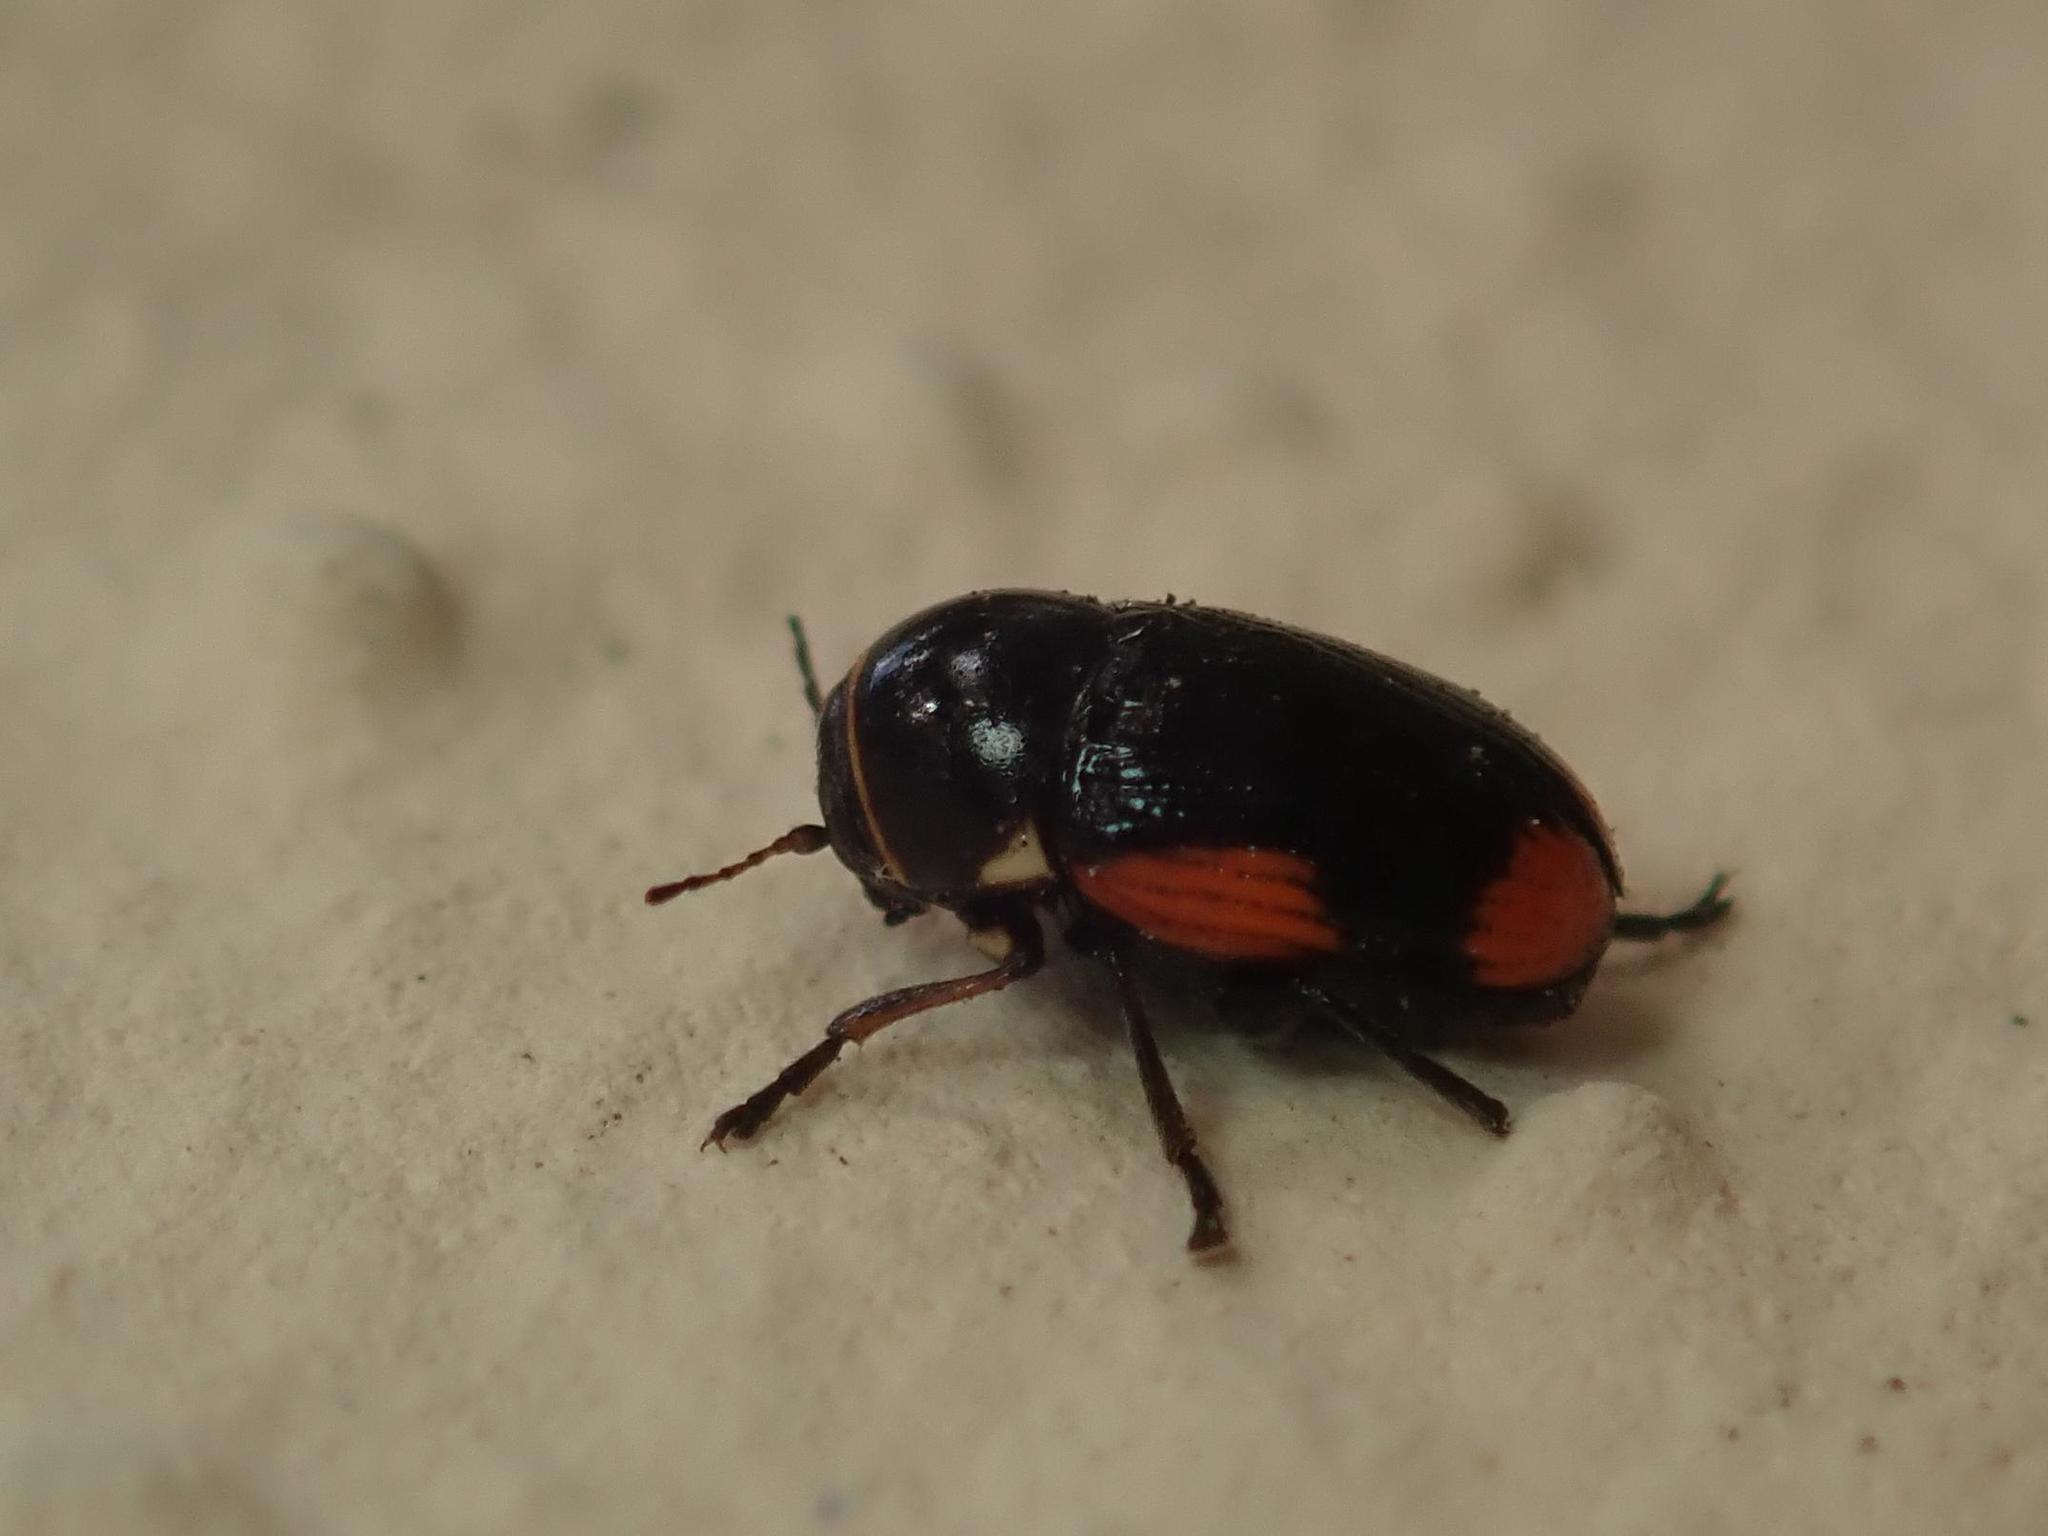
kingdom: Animalia
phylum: Arthropoda
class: Insecta
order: Coleoptera
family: Chrysomelidae
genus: Cryptocephalus
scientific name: Cryptocephalus moraei
